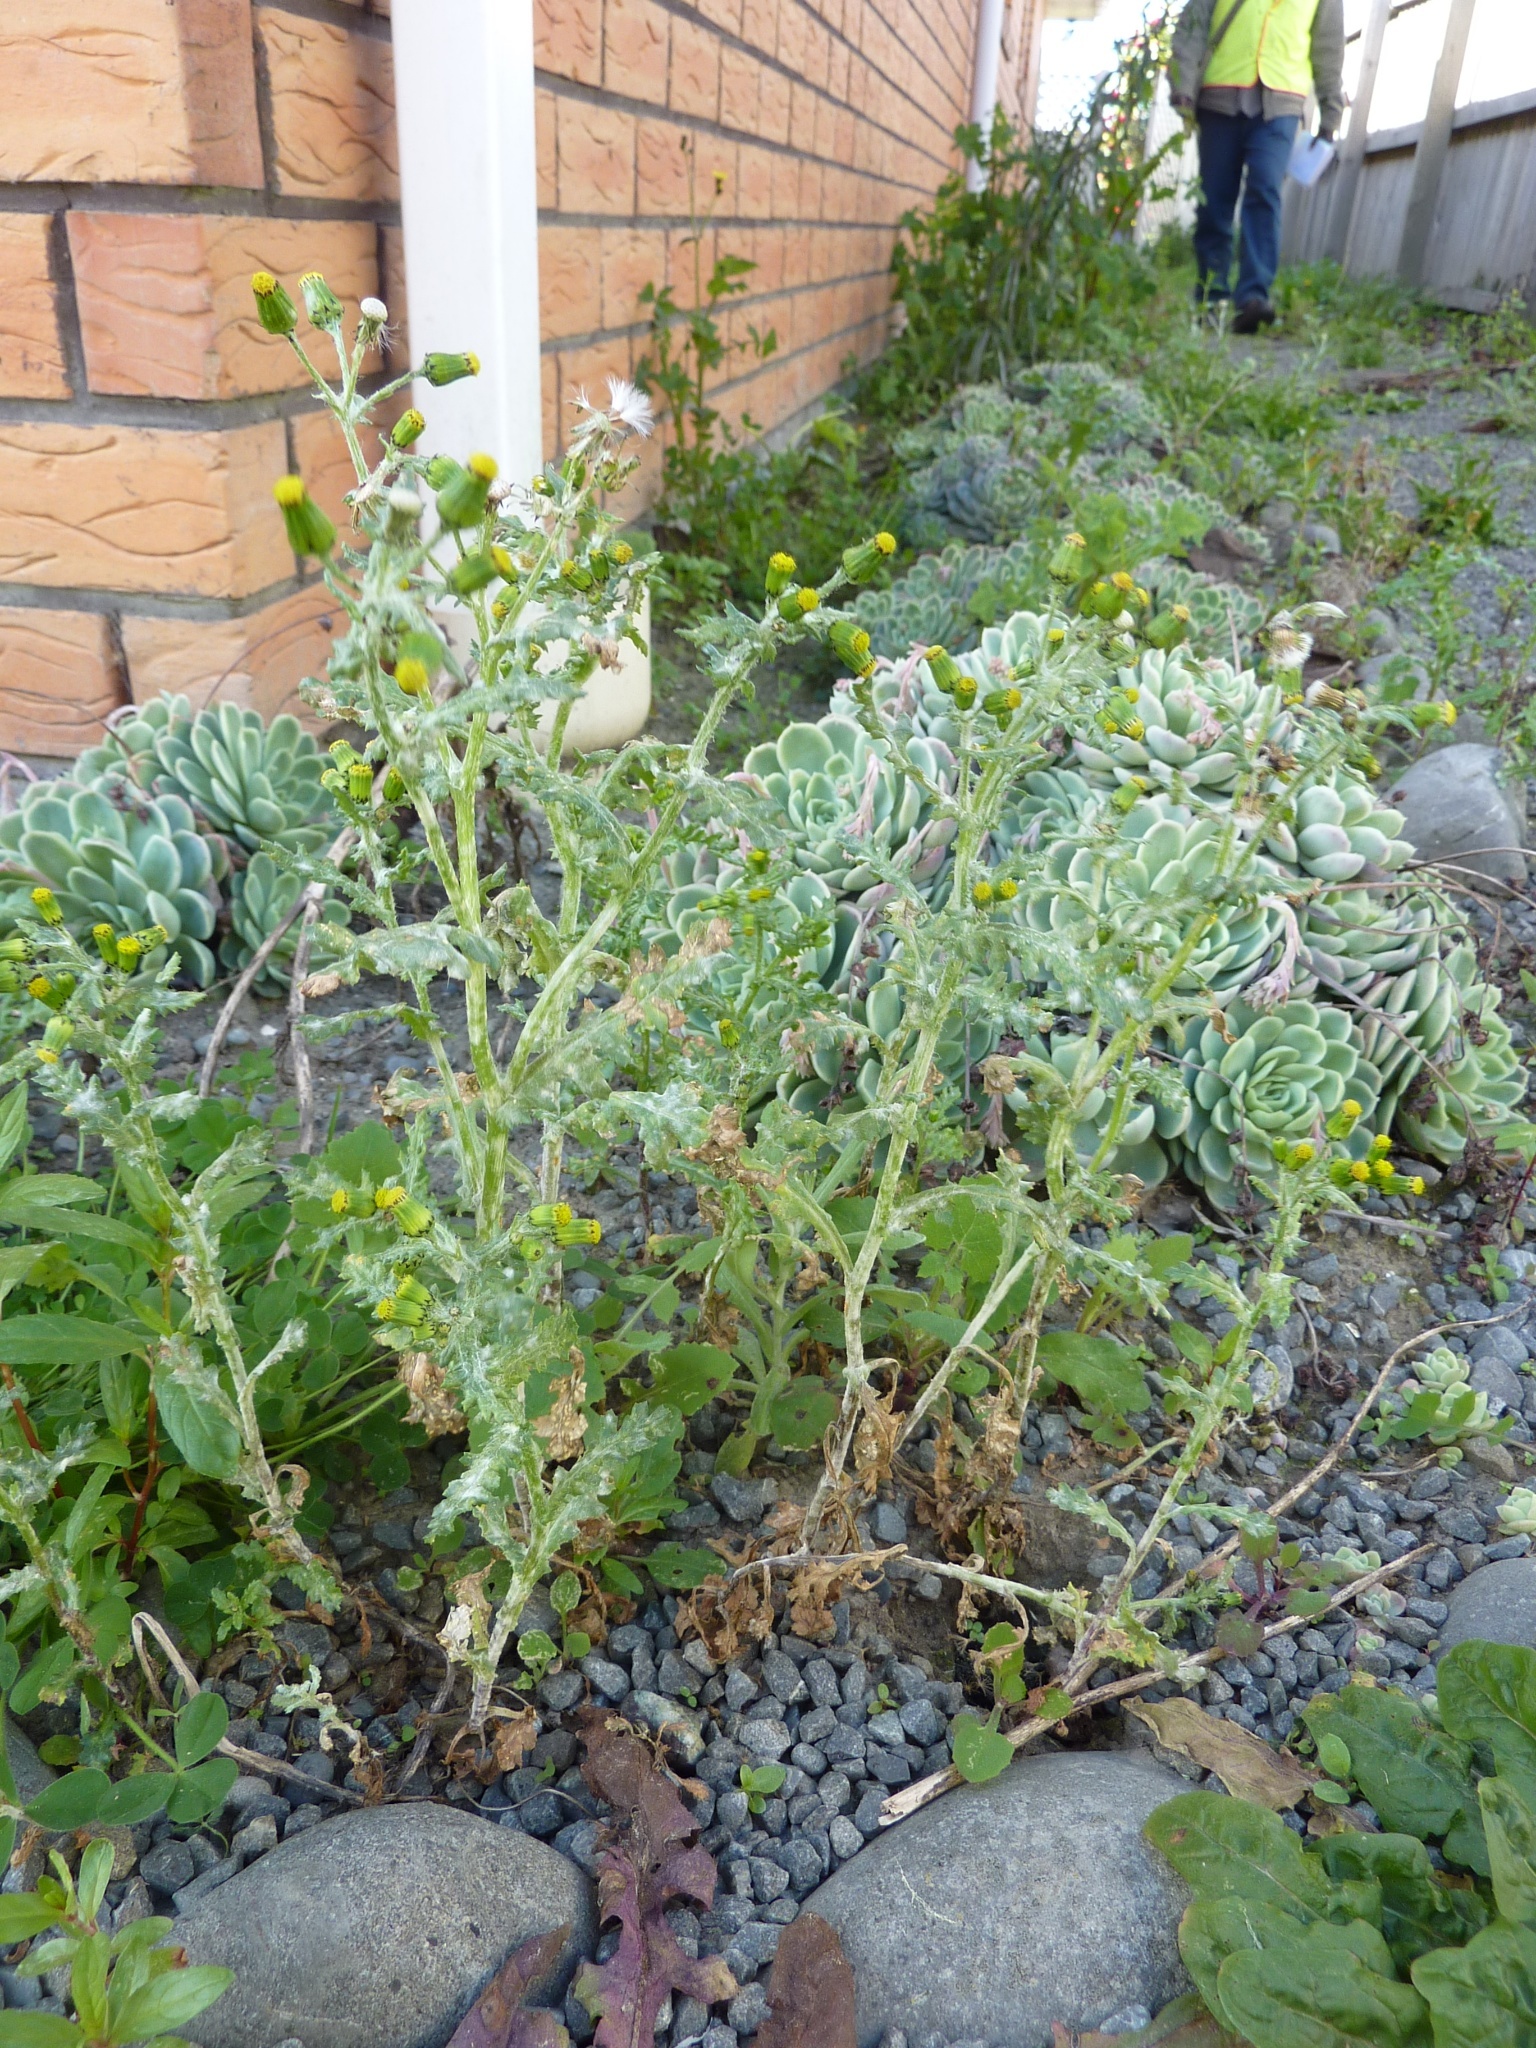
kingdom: Plantae
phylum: Tracheophyta
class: Magnoliopsida
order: Asterales
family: Asteraceae
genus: Senecio
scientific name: Senecio vulgaris
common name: Old-man-in-the-spring
